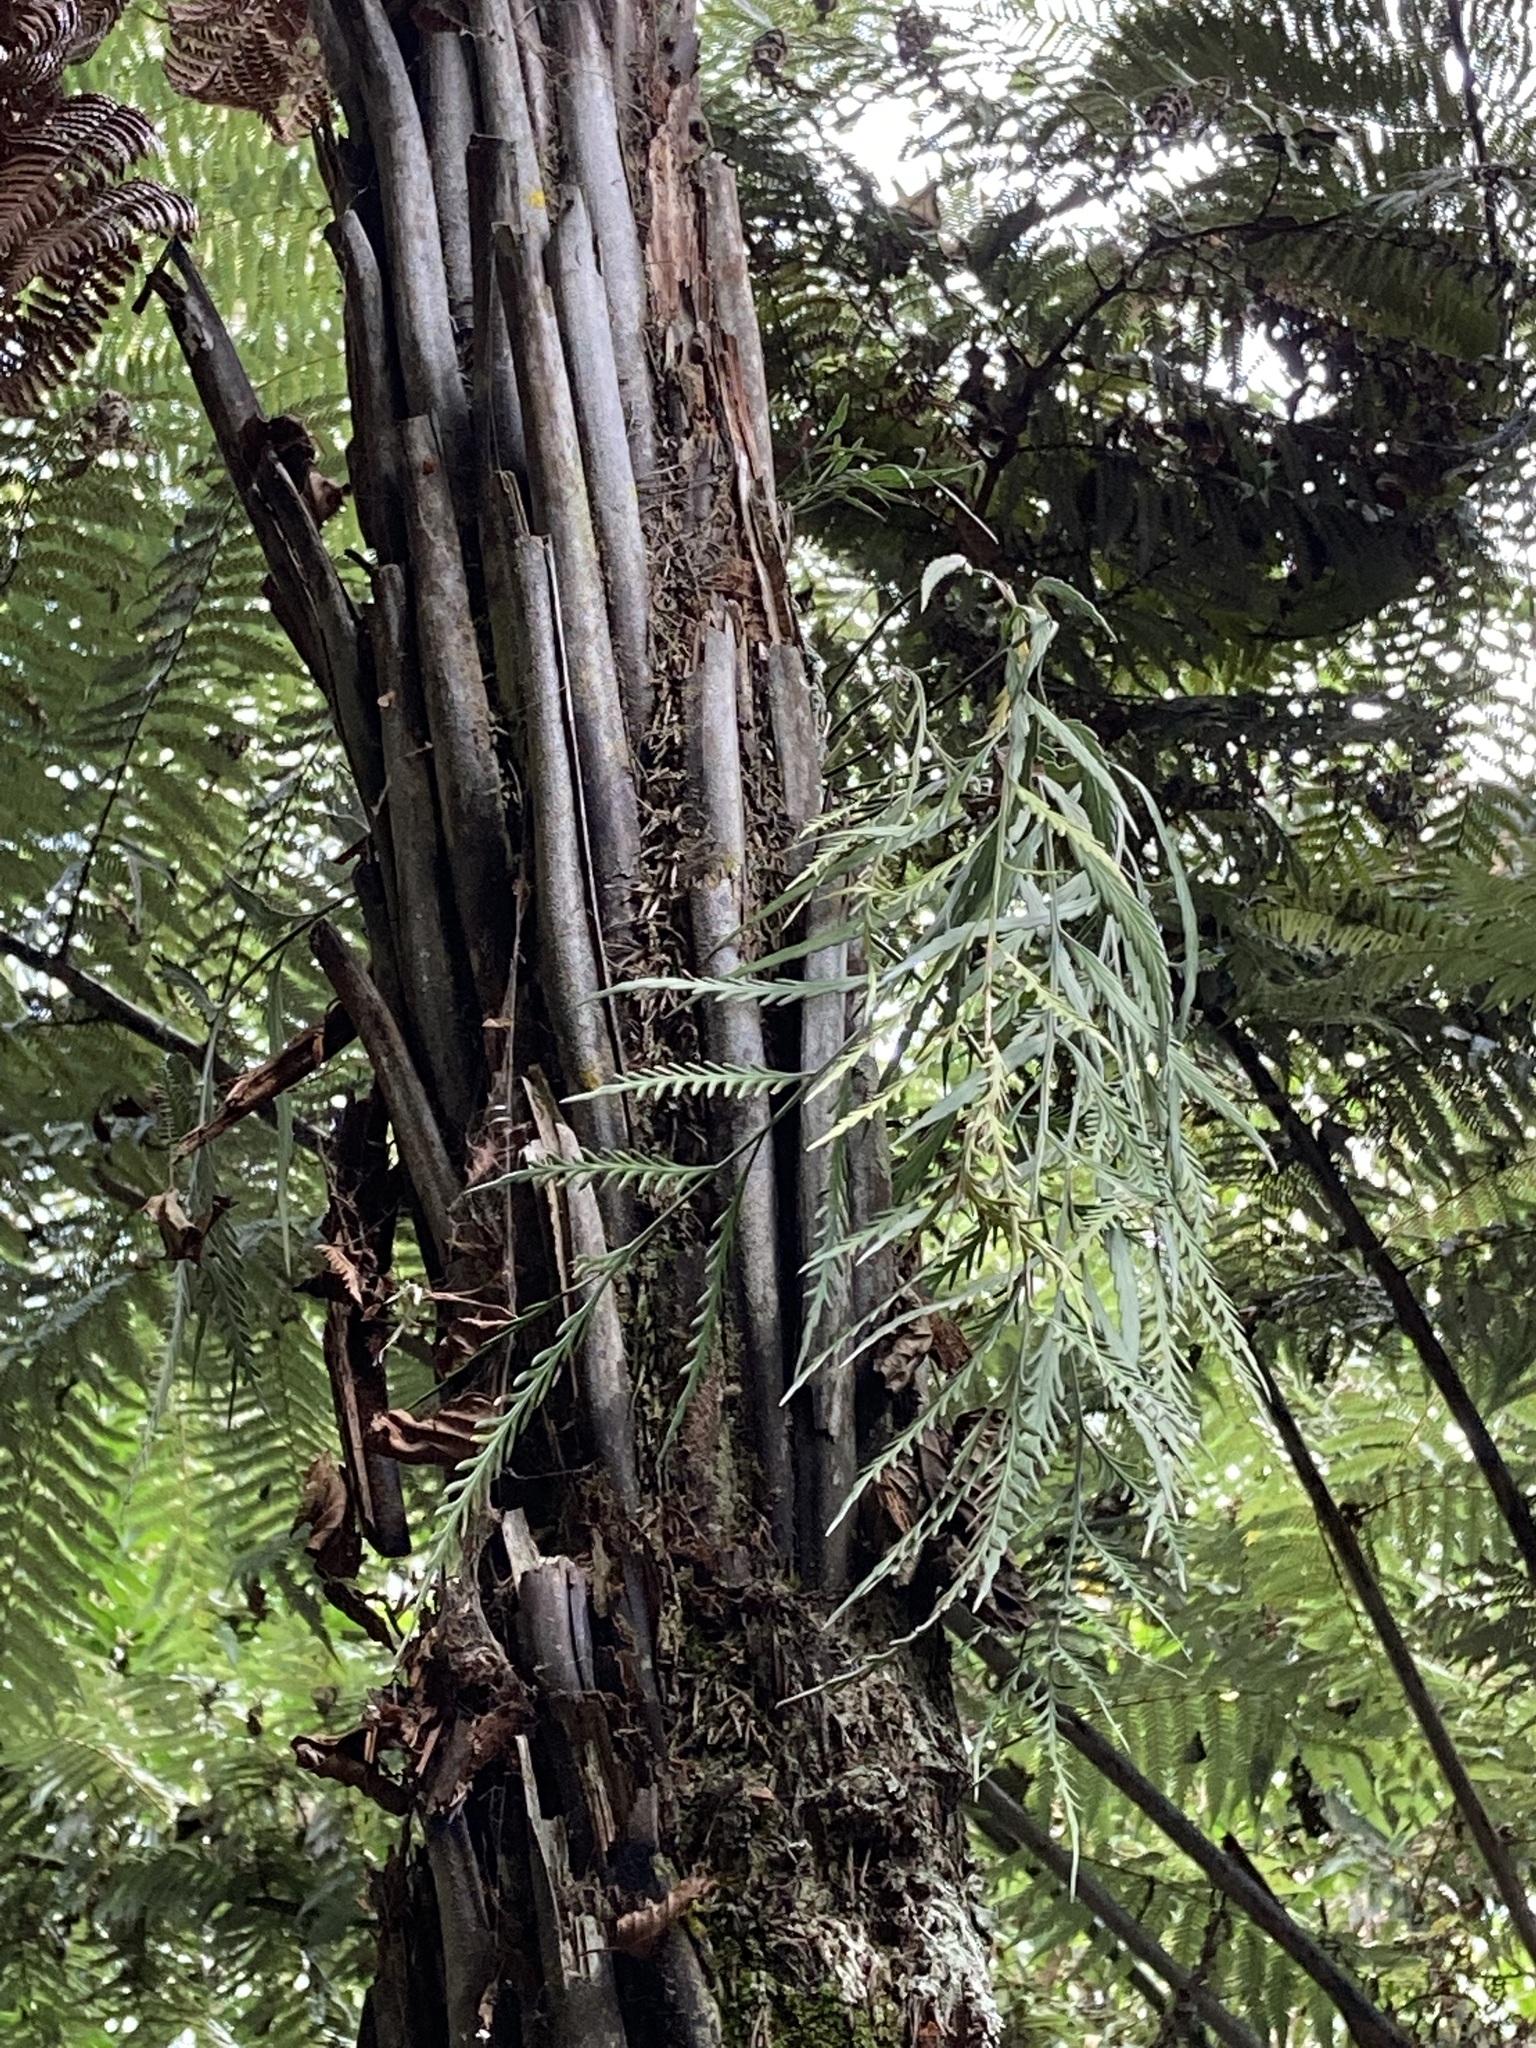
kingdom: Plantae
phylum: Tracheophyta
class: Polypodiopsida
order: Polypodiales
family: Aspleniaceae
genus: Asplenium
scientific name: Asplenium flaccidum
